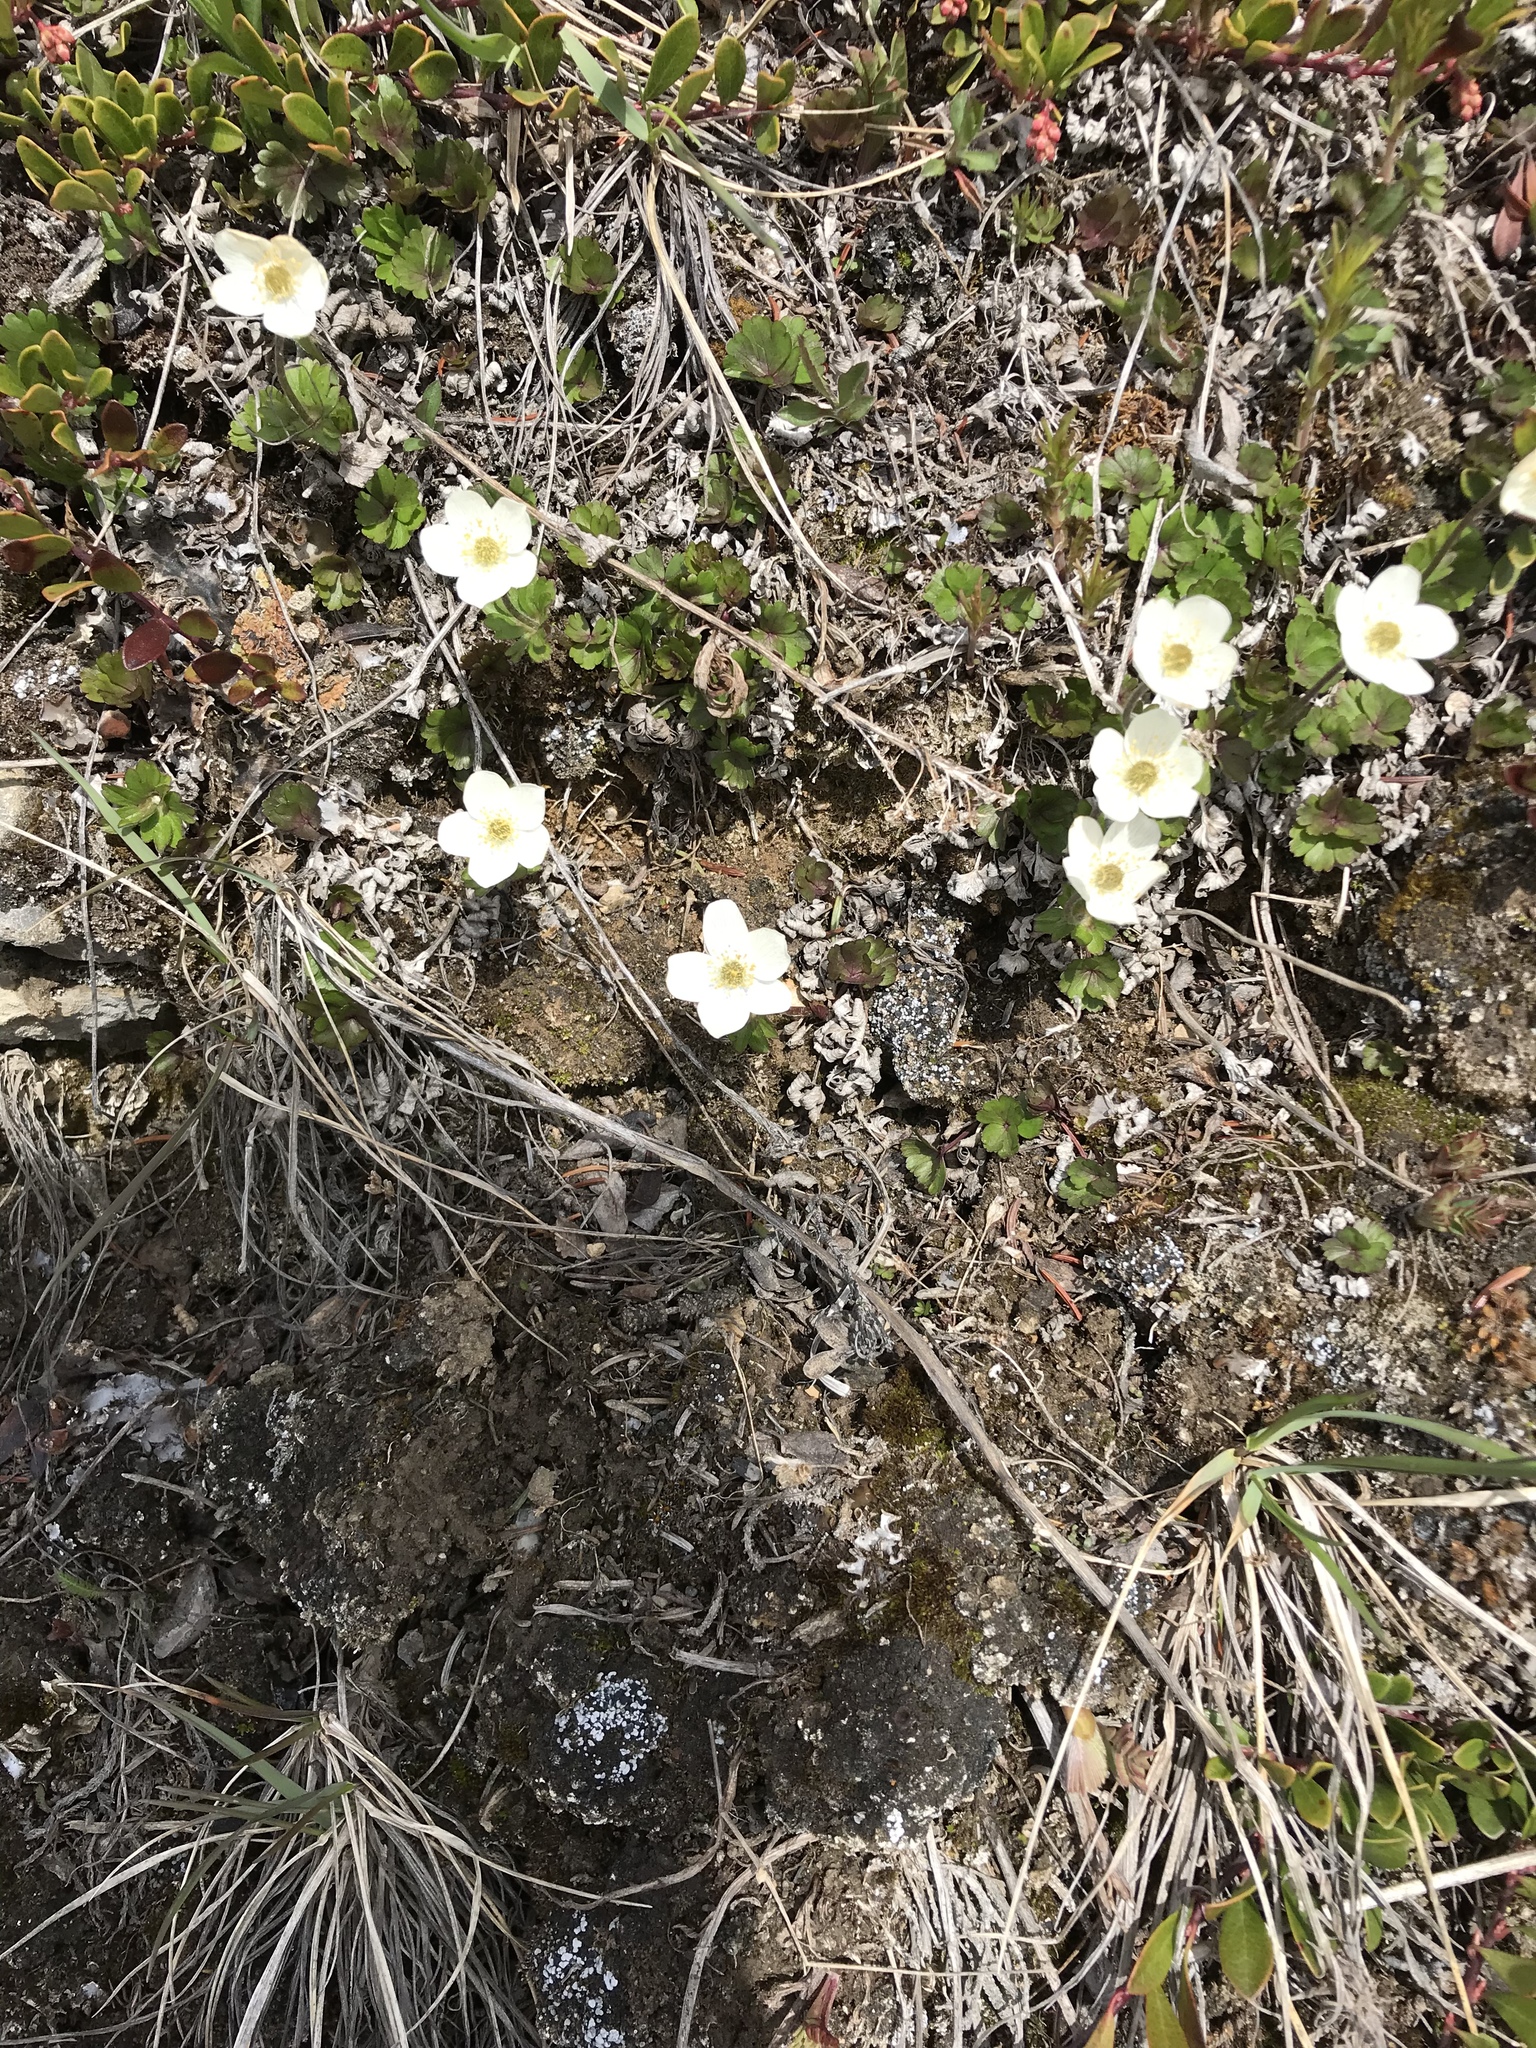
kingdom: Plantae
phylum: Tracheophyta
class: Magnoliopsida
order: Ranunculales
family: Ranunculaceae
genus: Anemone
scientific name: Anemone parviflora
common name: Northern anemone
